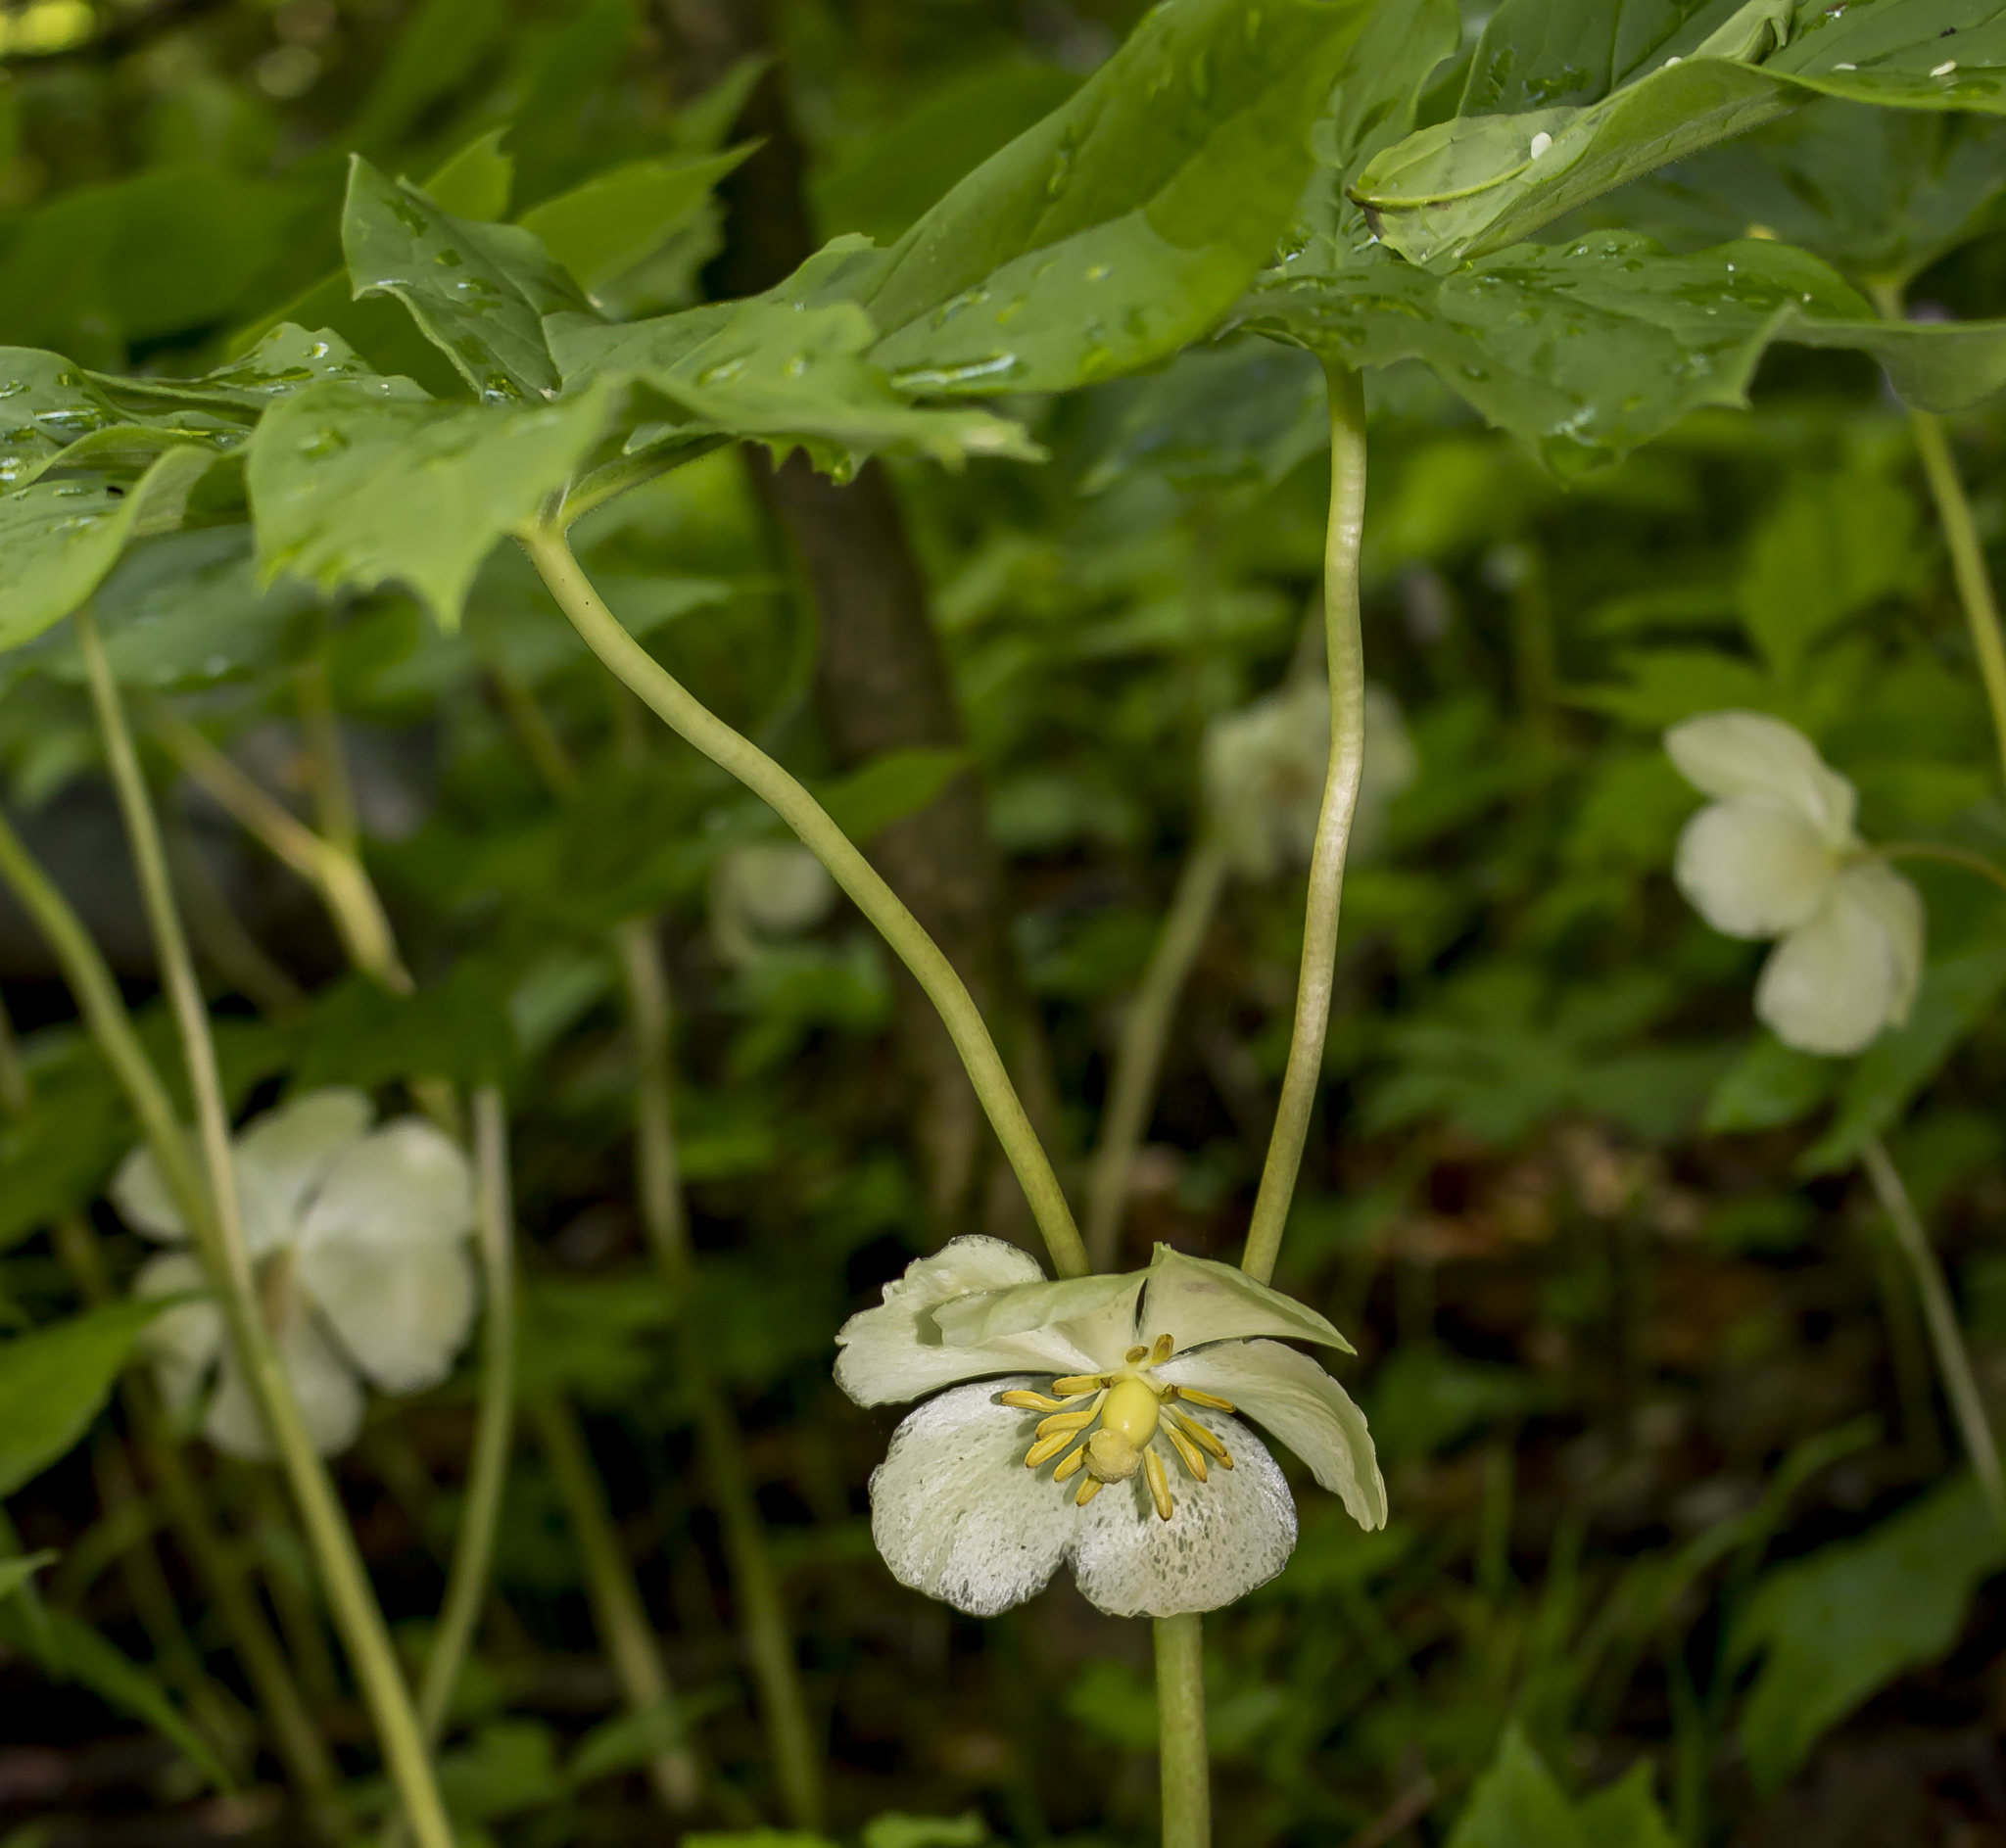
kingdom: Plantae
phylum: Tracheophyta
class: Magnoliopsida
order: Ranunculales
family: Berberidaceae
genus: Podophyllum
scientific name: Podophyllum peltatum
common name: Wild mandrake
